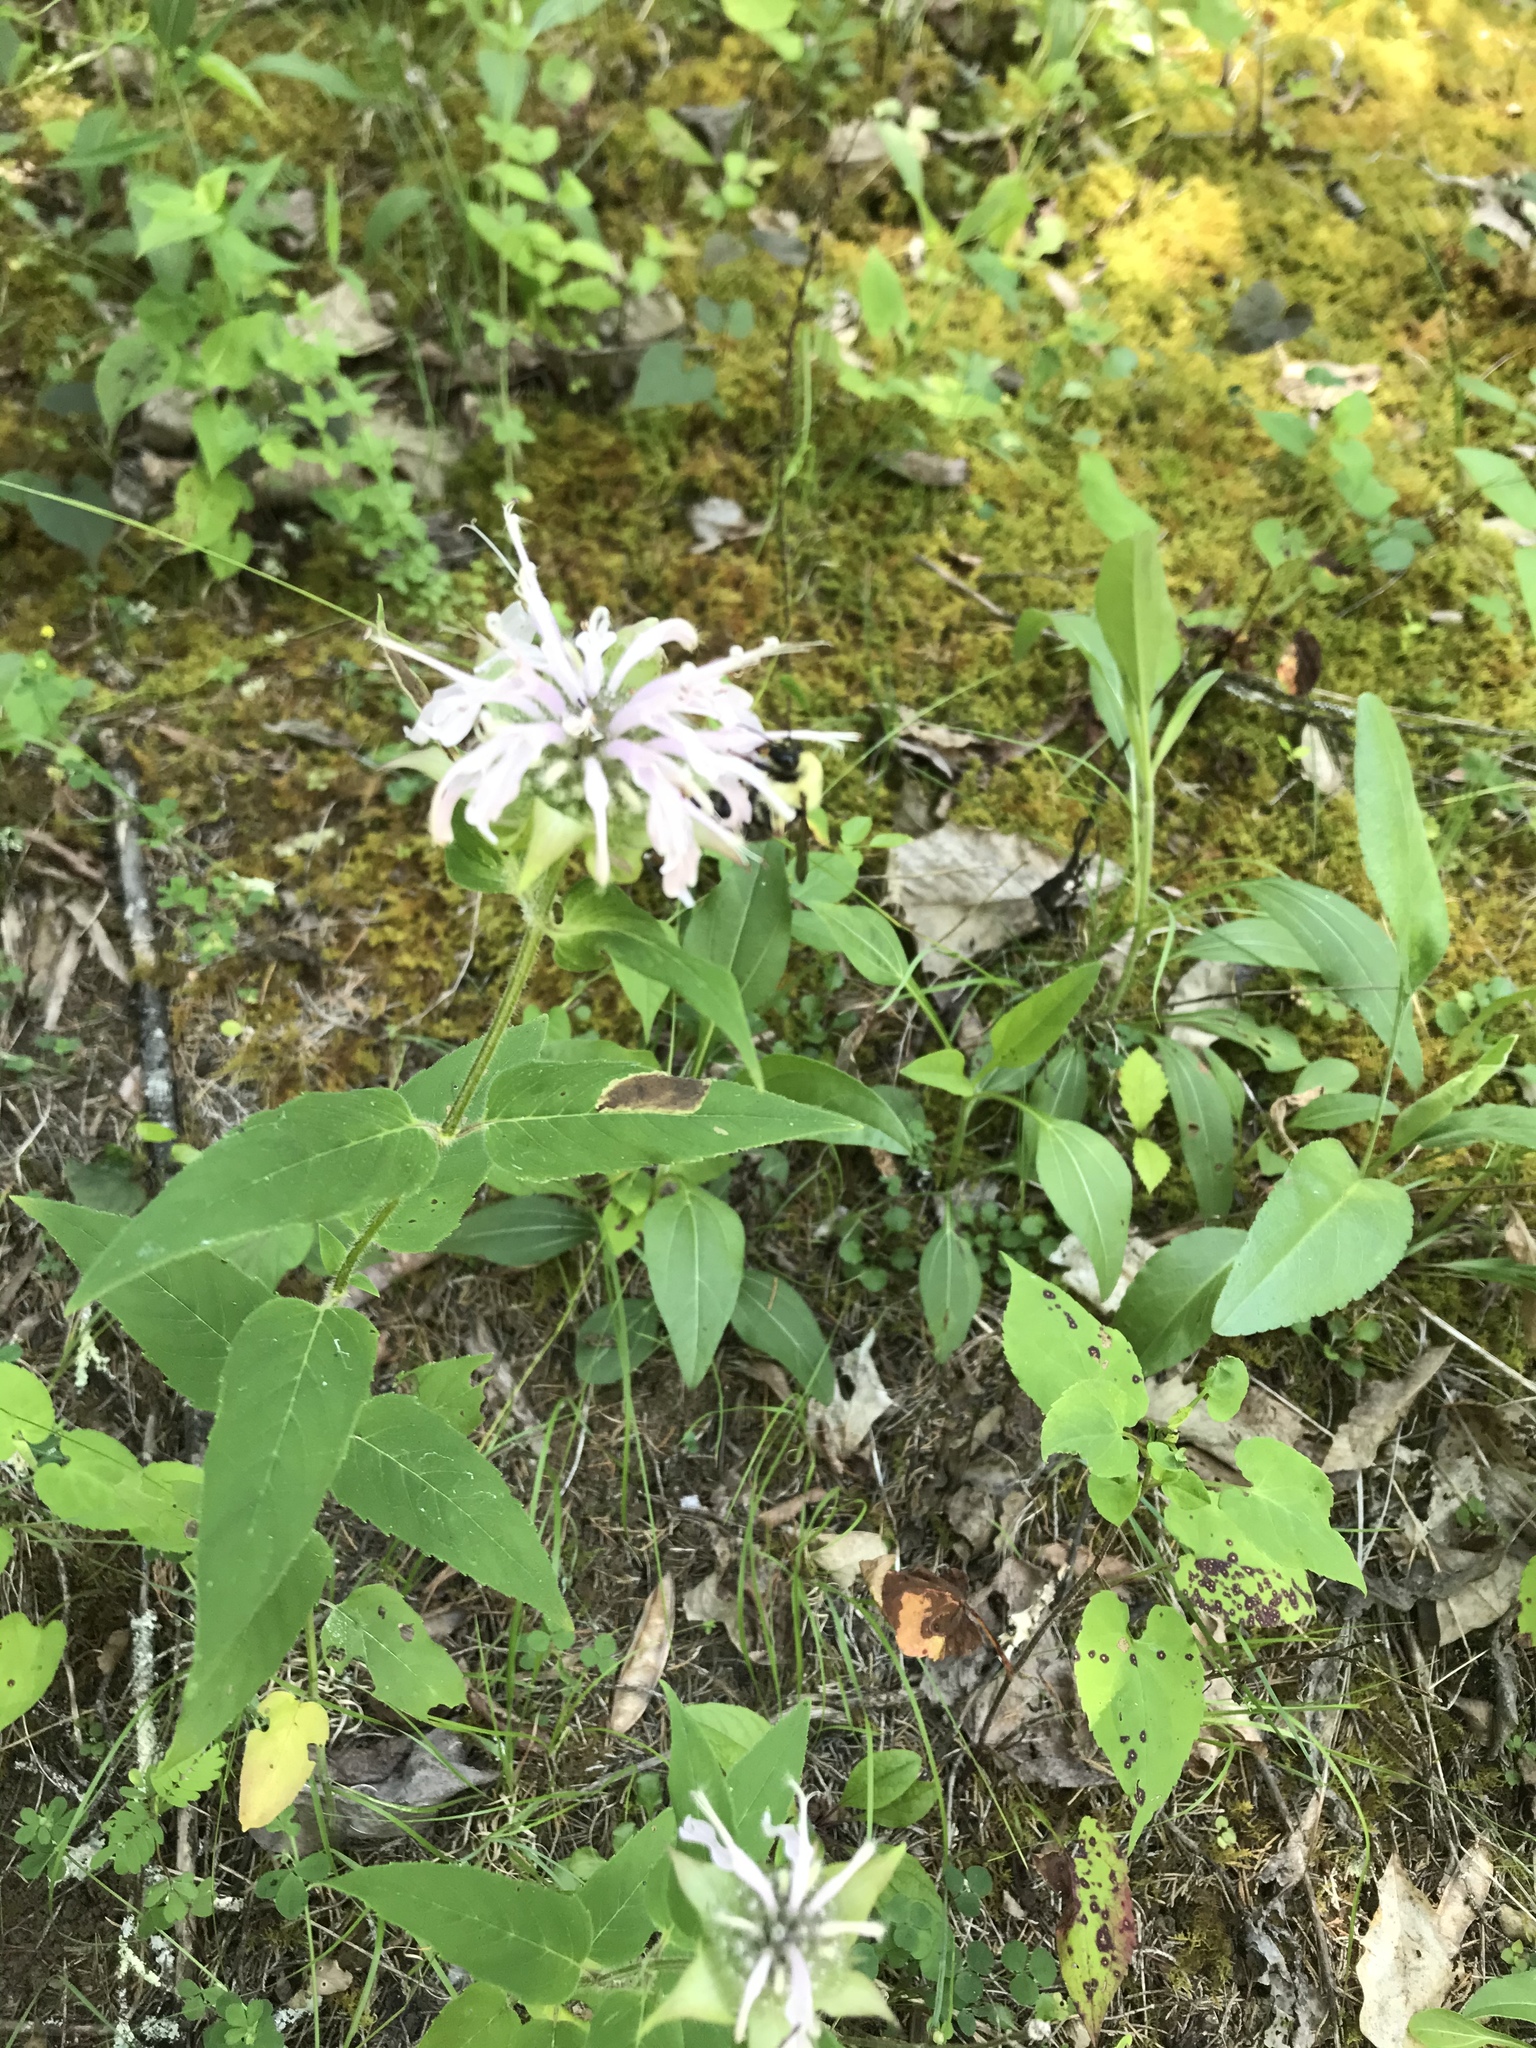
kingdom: Plantae
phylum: Tracheophyta
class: Magnoliopsida
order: Lamiales
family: Lamiaceae
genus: Monarda
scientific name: Monarda fistulosa
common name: Purple beebalm
